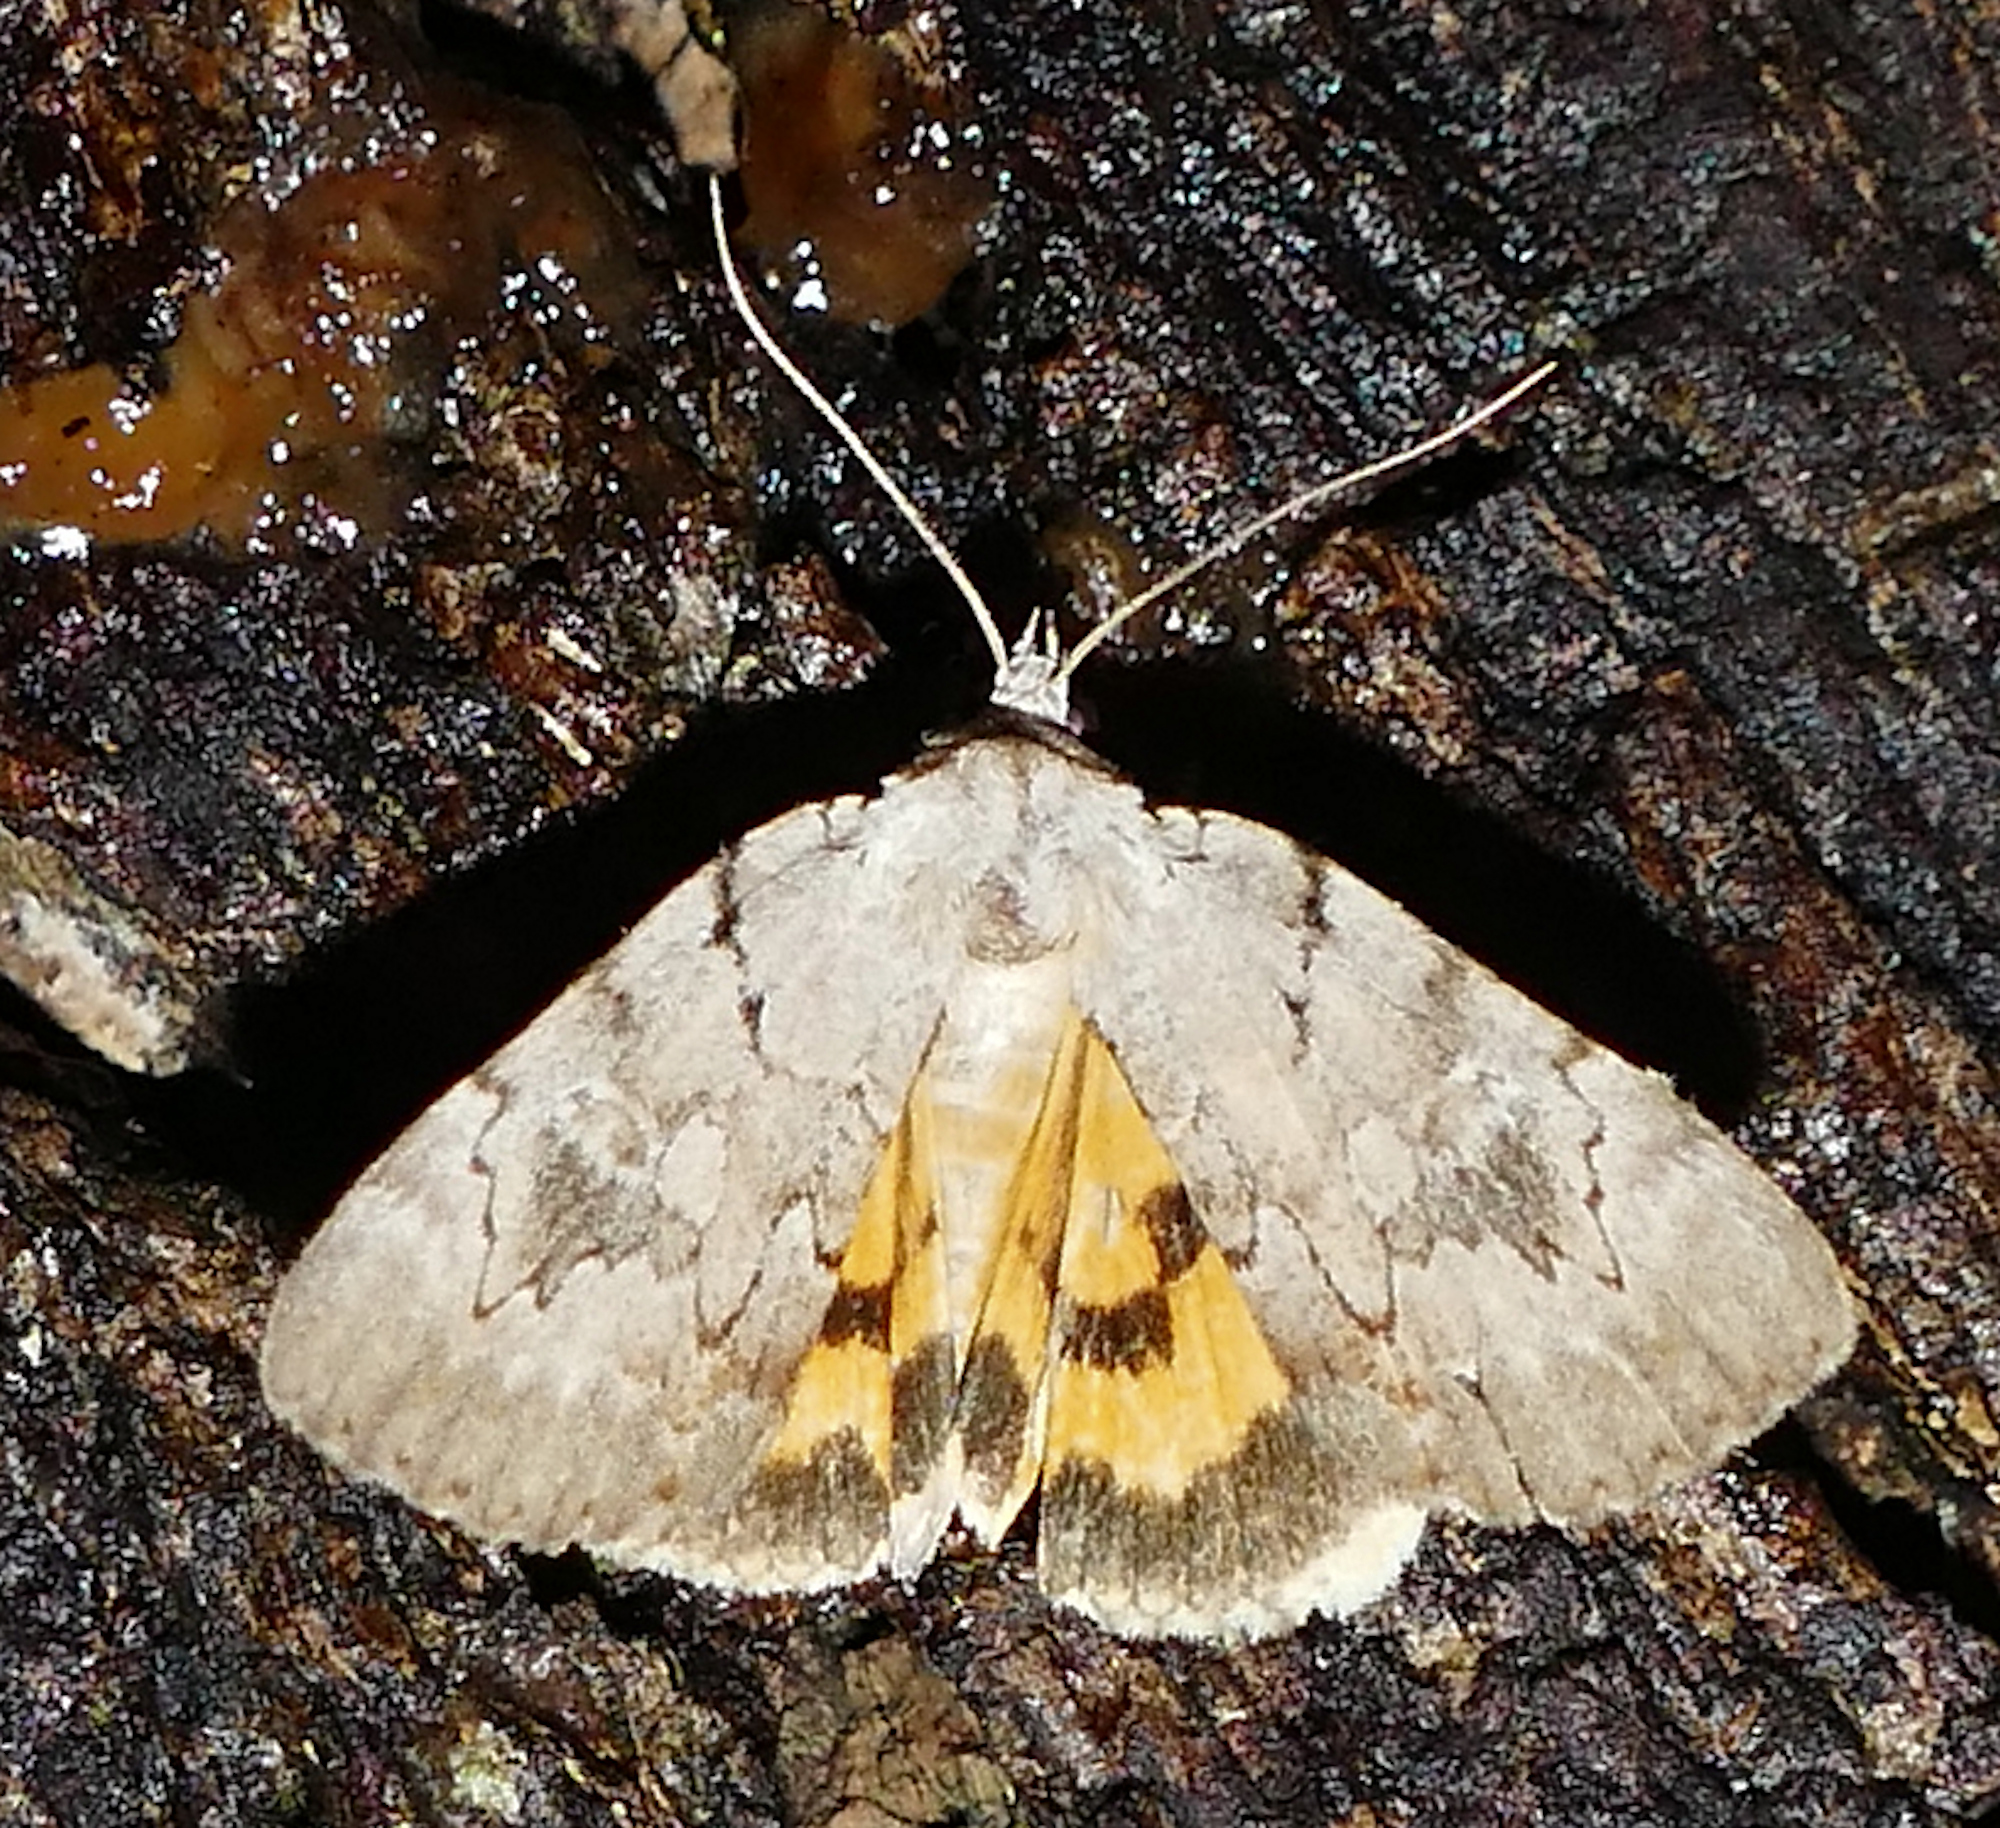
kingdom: Animalia
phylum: Arthropoda
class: Insecta
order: Lepidoptera
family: Erebidae
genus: Catocala
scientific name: Catocala alabamae
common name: Alabama underwing
